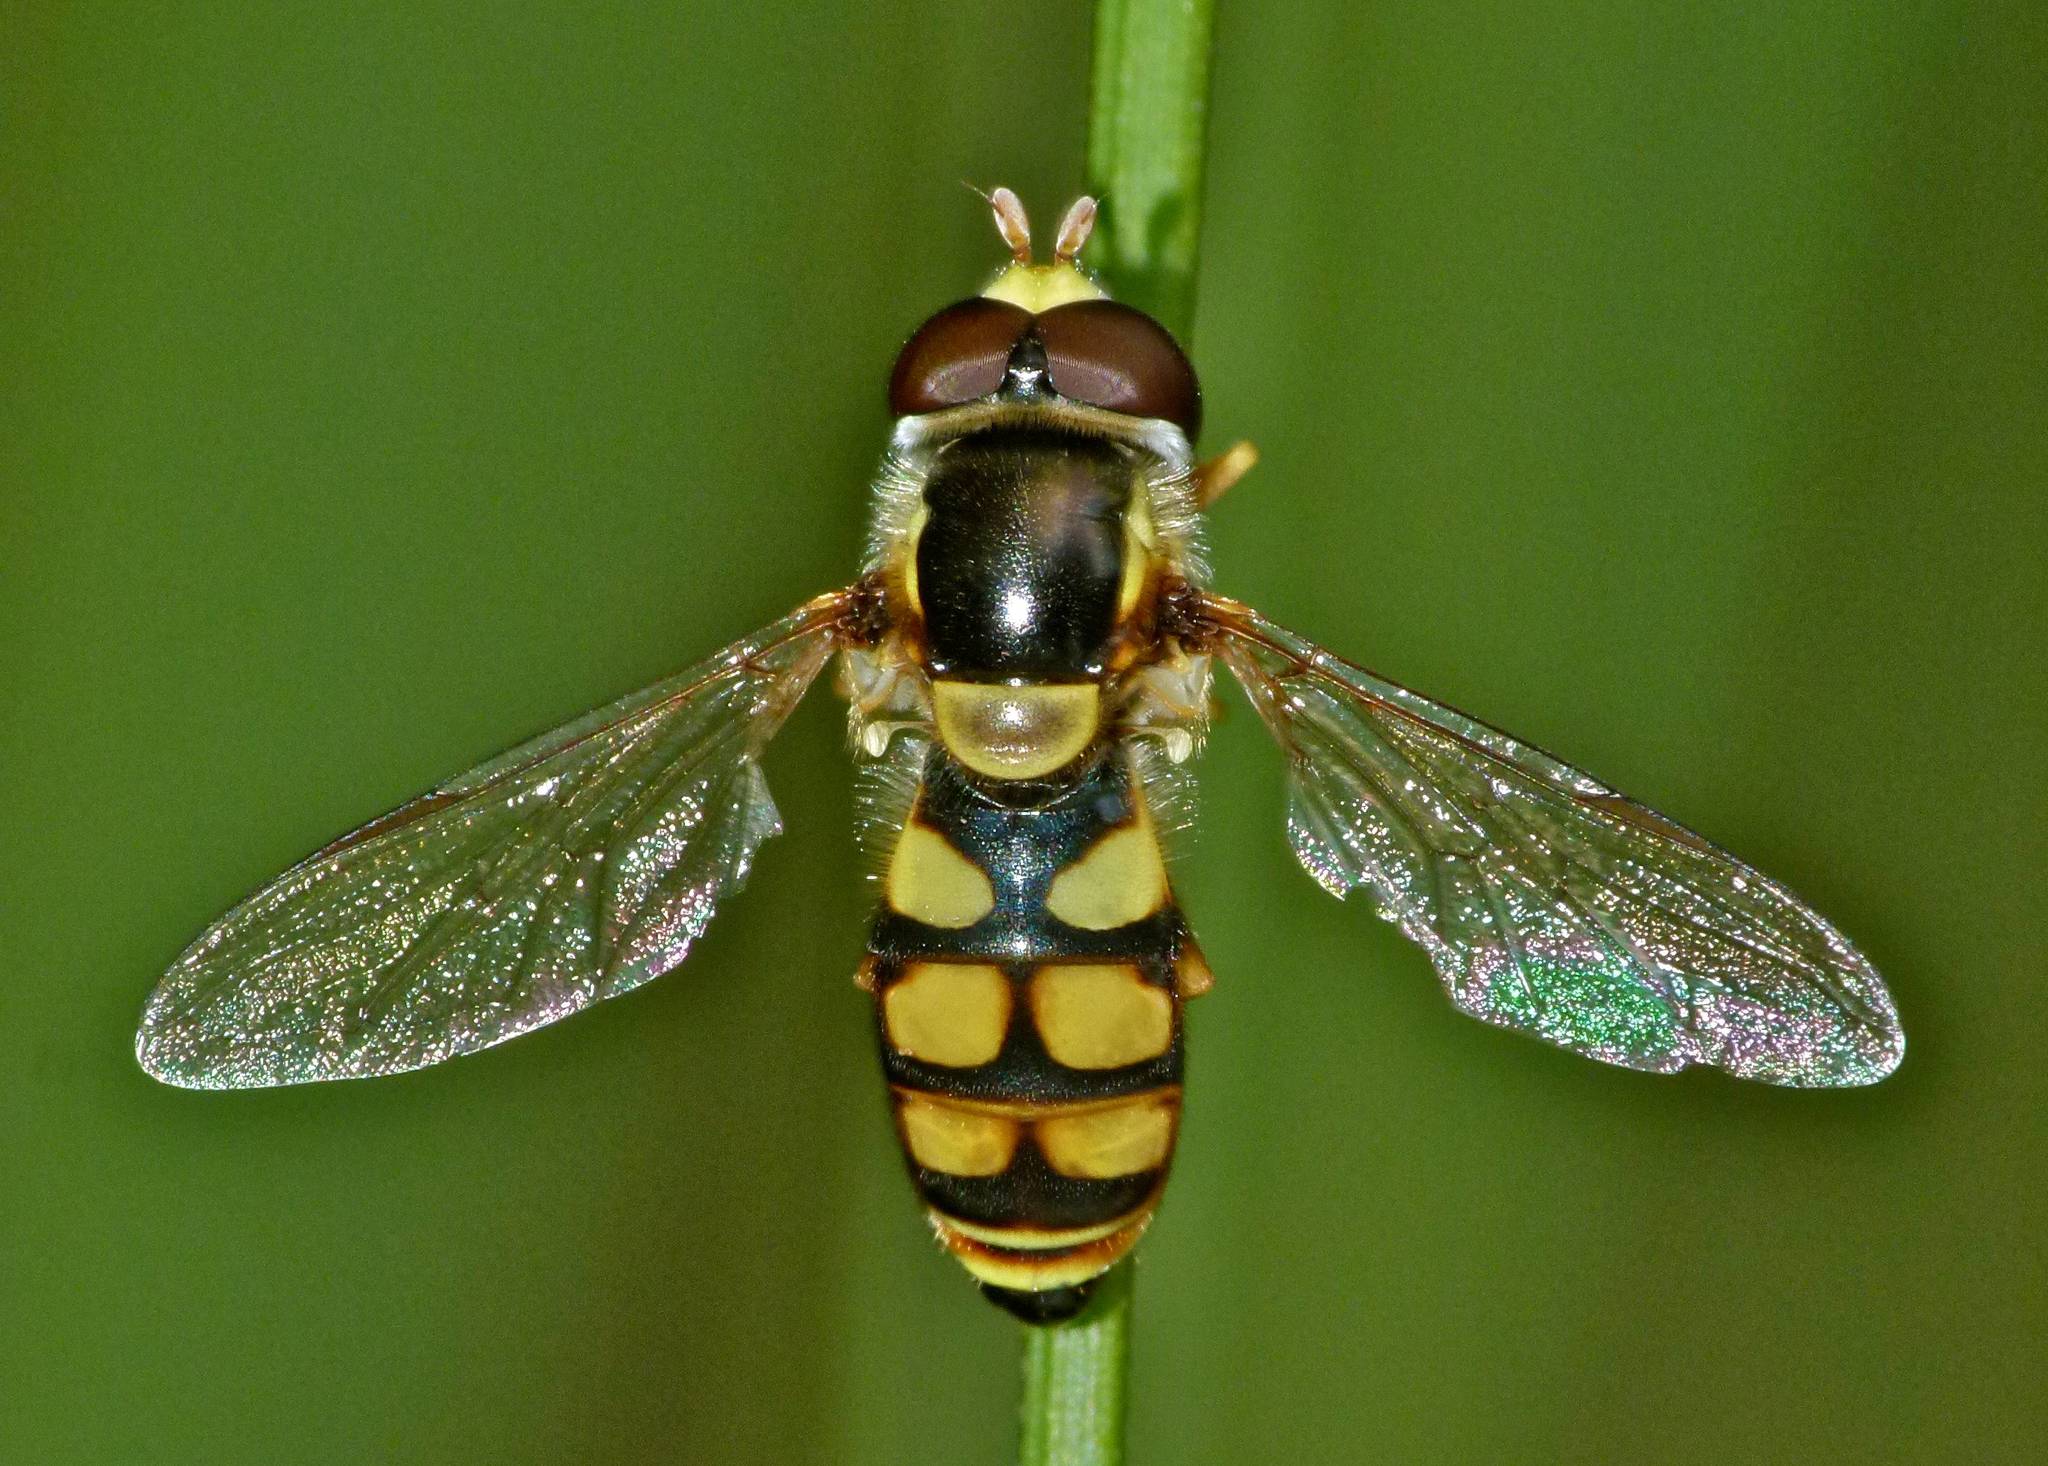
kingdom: Animalia
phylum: Arthropoda
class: Insecta
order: Diptera
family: Syrphidae
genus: Simosyrphus
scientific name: Simosyrphus grandicornis
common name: Hoverfly
